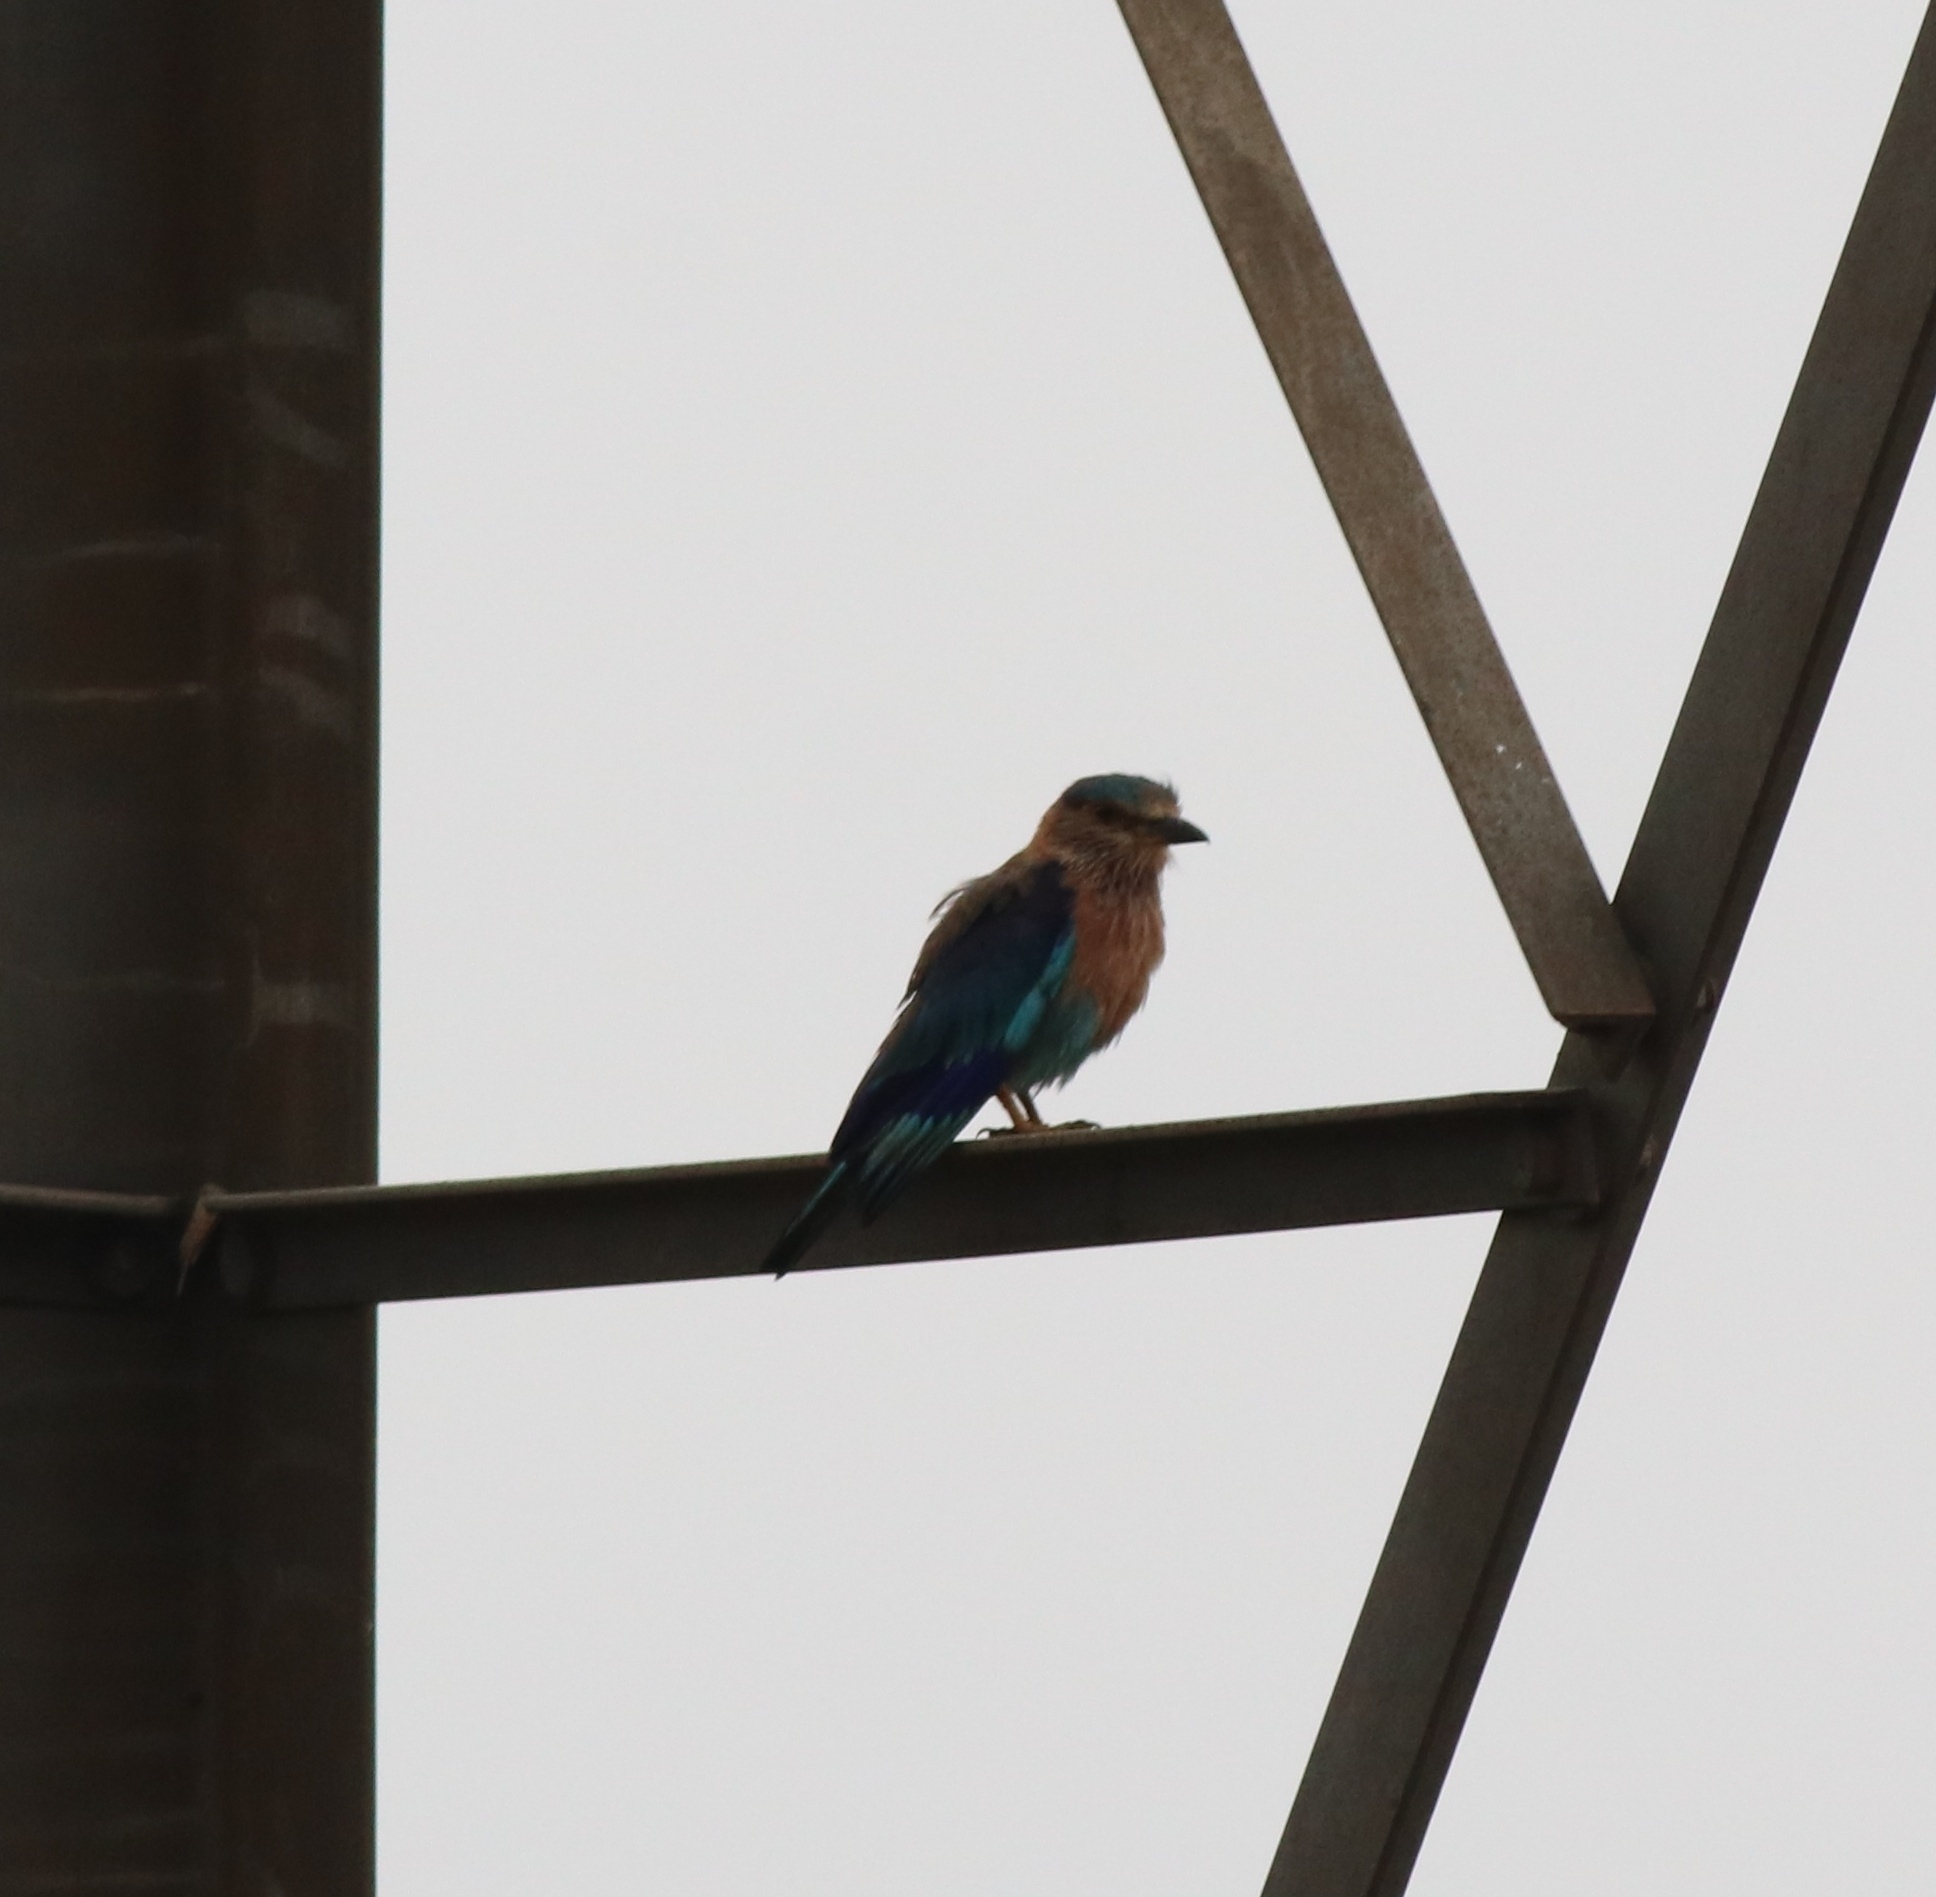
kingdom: Animalia
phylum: Chordata
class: Aves
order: Coraciiformes
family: Coraciidae
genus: Coracias
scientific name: Coracias benghalensis
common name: Indian roller
